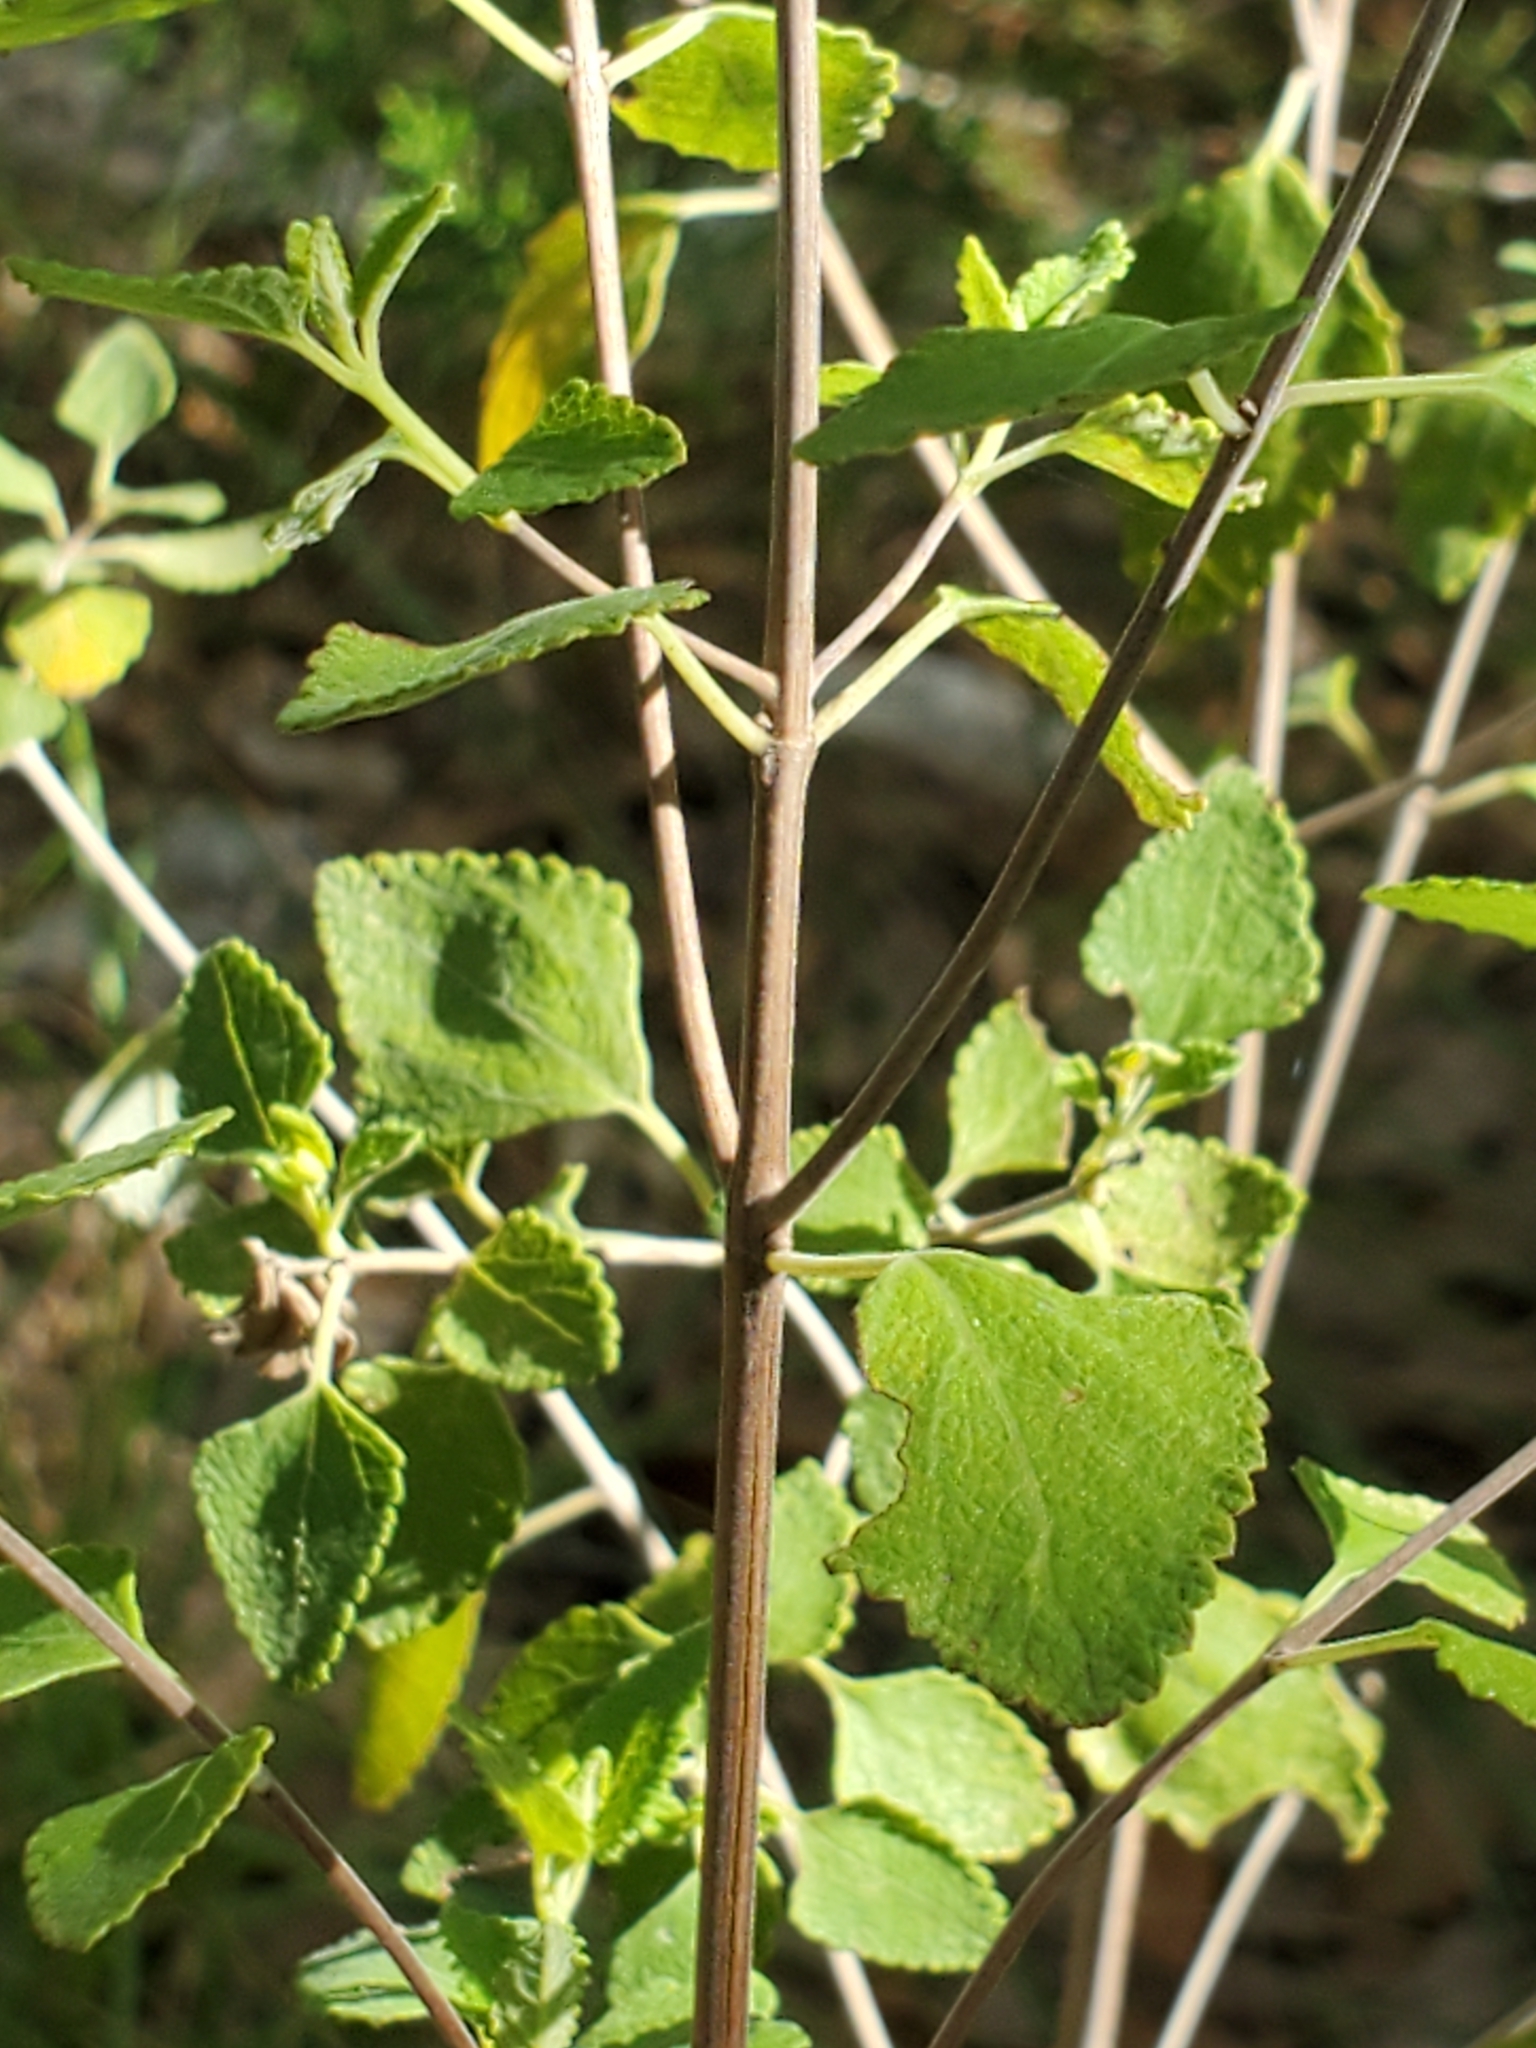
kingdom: Plantae
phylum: Tracheophyta
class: Magnoliopsida
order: Lamiales
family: Lamiaceae
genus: Salvia
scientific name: Salvia ballotiflora
